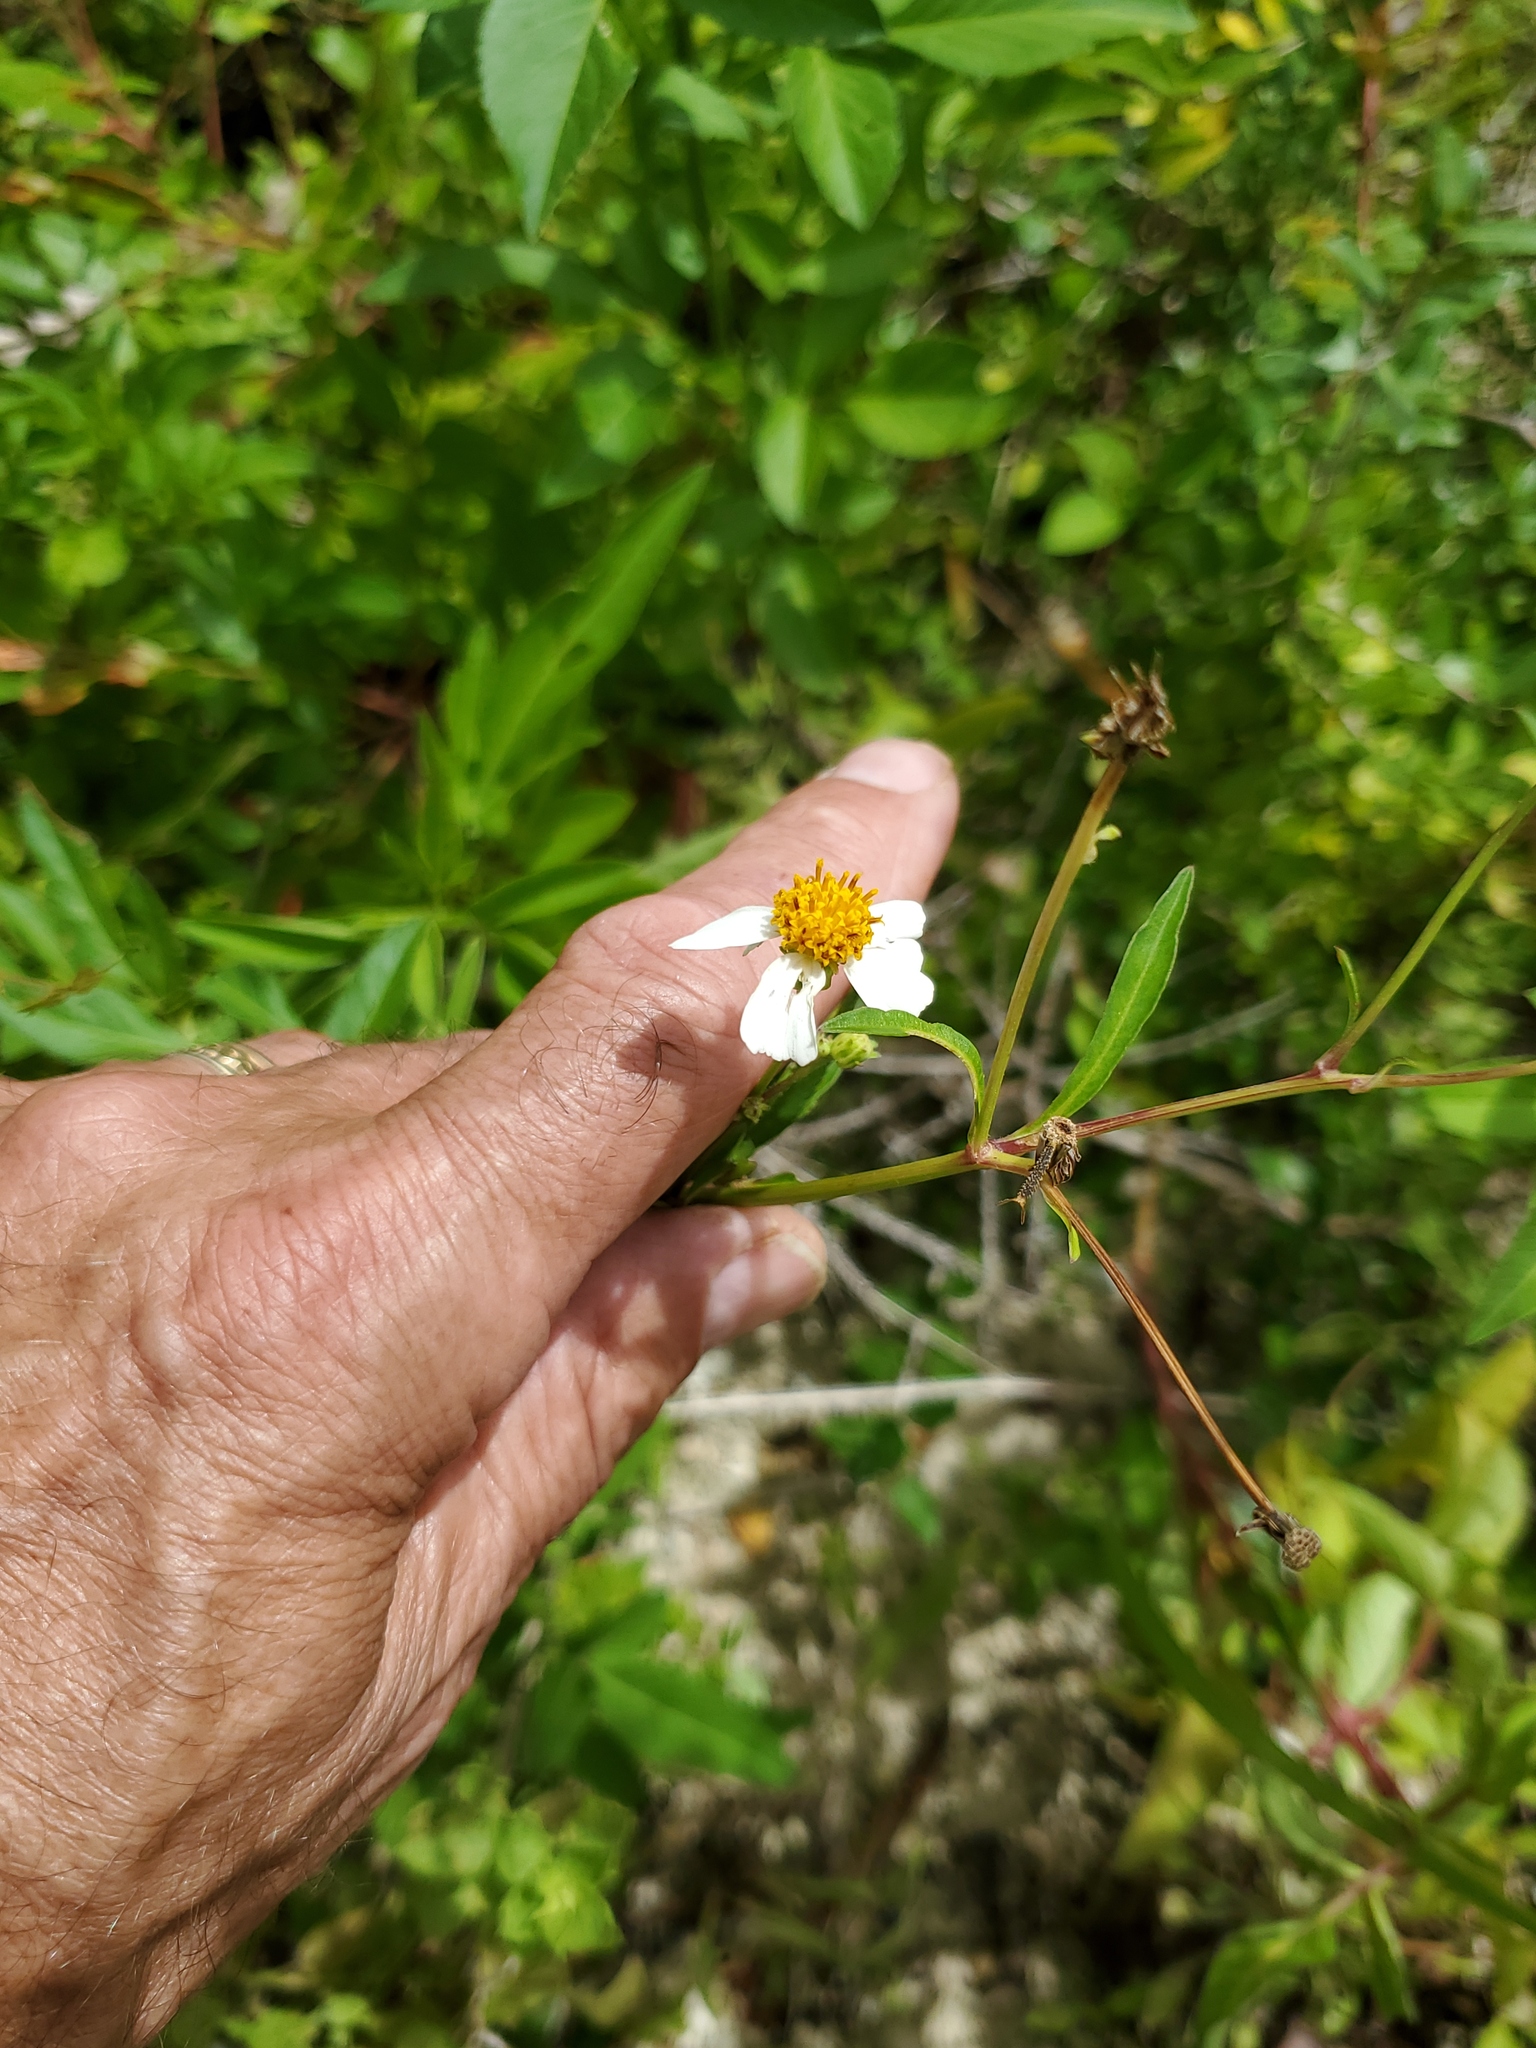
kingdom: Plantae
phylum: Tracheophyta
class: Magnoliopsida
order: Asterales
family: Asteraceae
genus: Bidens
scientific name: Bidens alba
